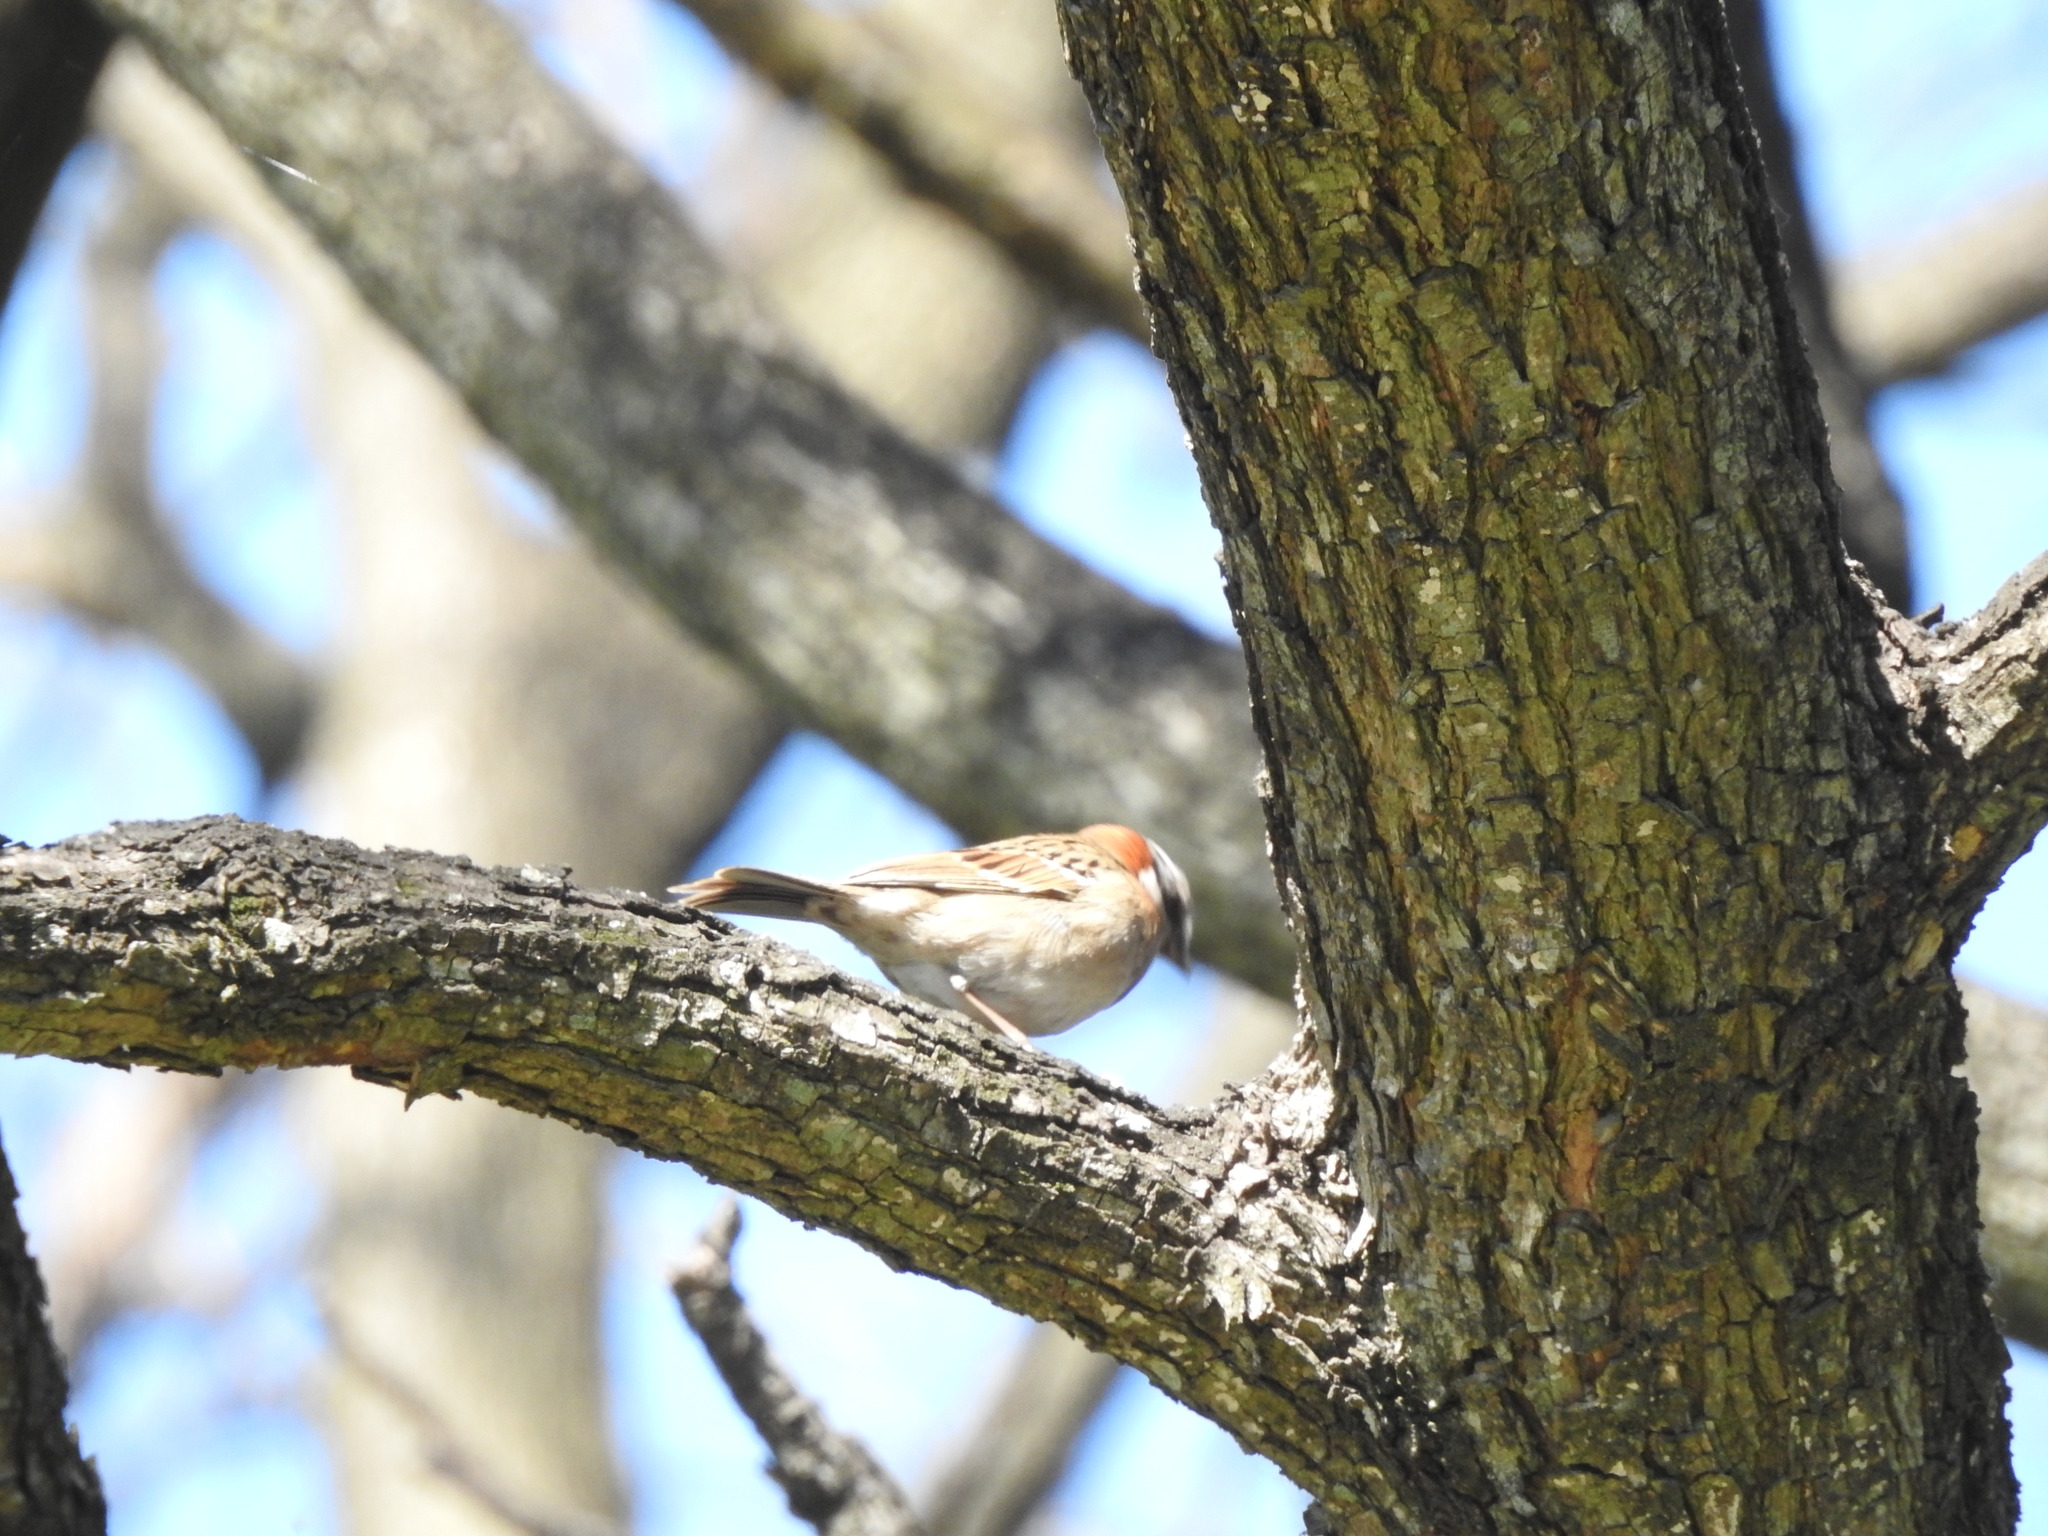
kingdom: Animalia
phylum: Chordata
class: Aves
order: Passeriformes
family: Passerellidae
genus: Zonotrichia
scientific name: Zonotrichia capensis
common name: Rufous-collared sparrow
